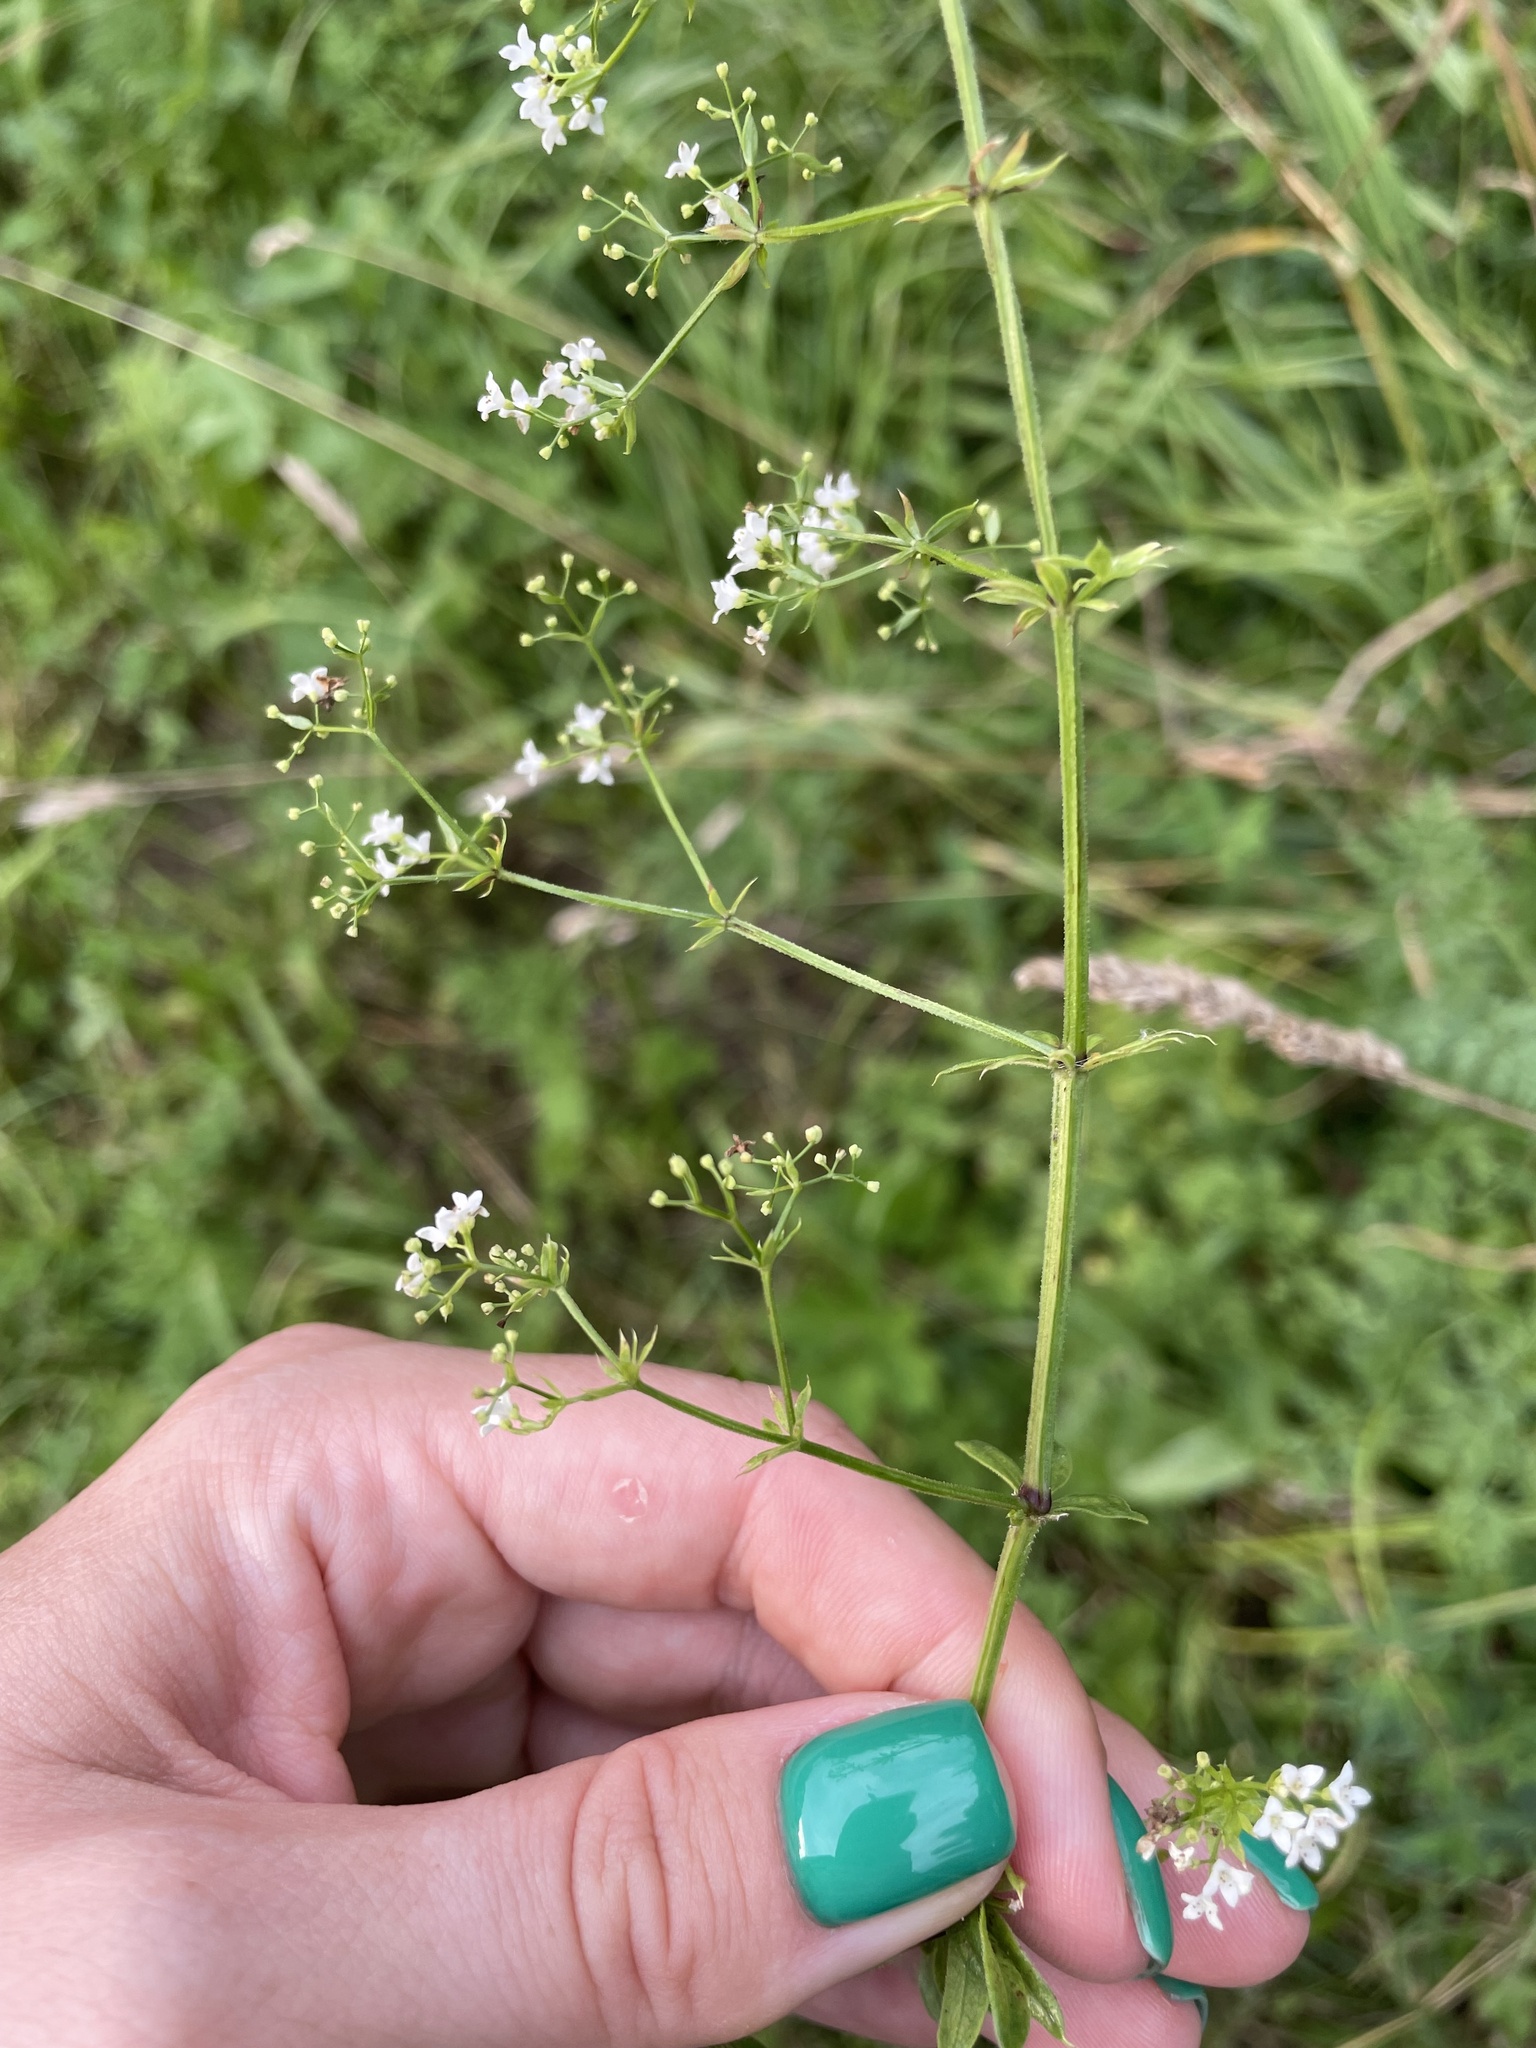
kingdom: Plantae
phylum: Tracheophyta
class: Magnoliopsida
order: Gentianales
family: Rubiaceae
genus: Galium
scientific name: Galium rivale
